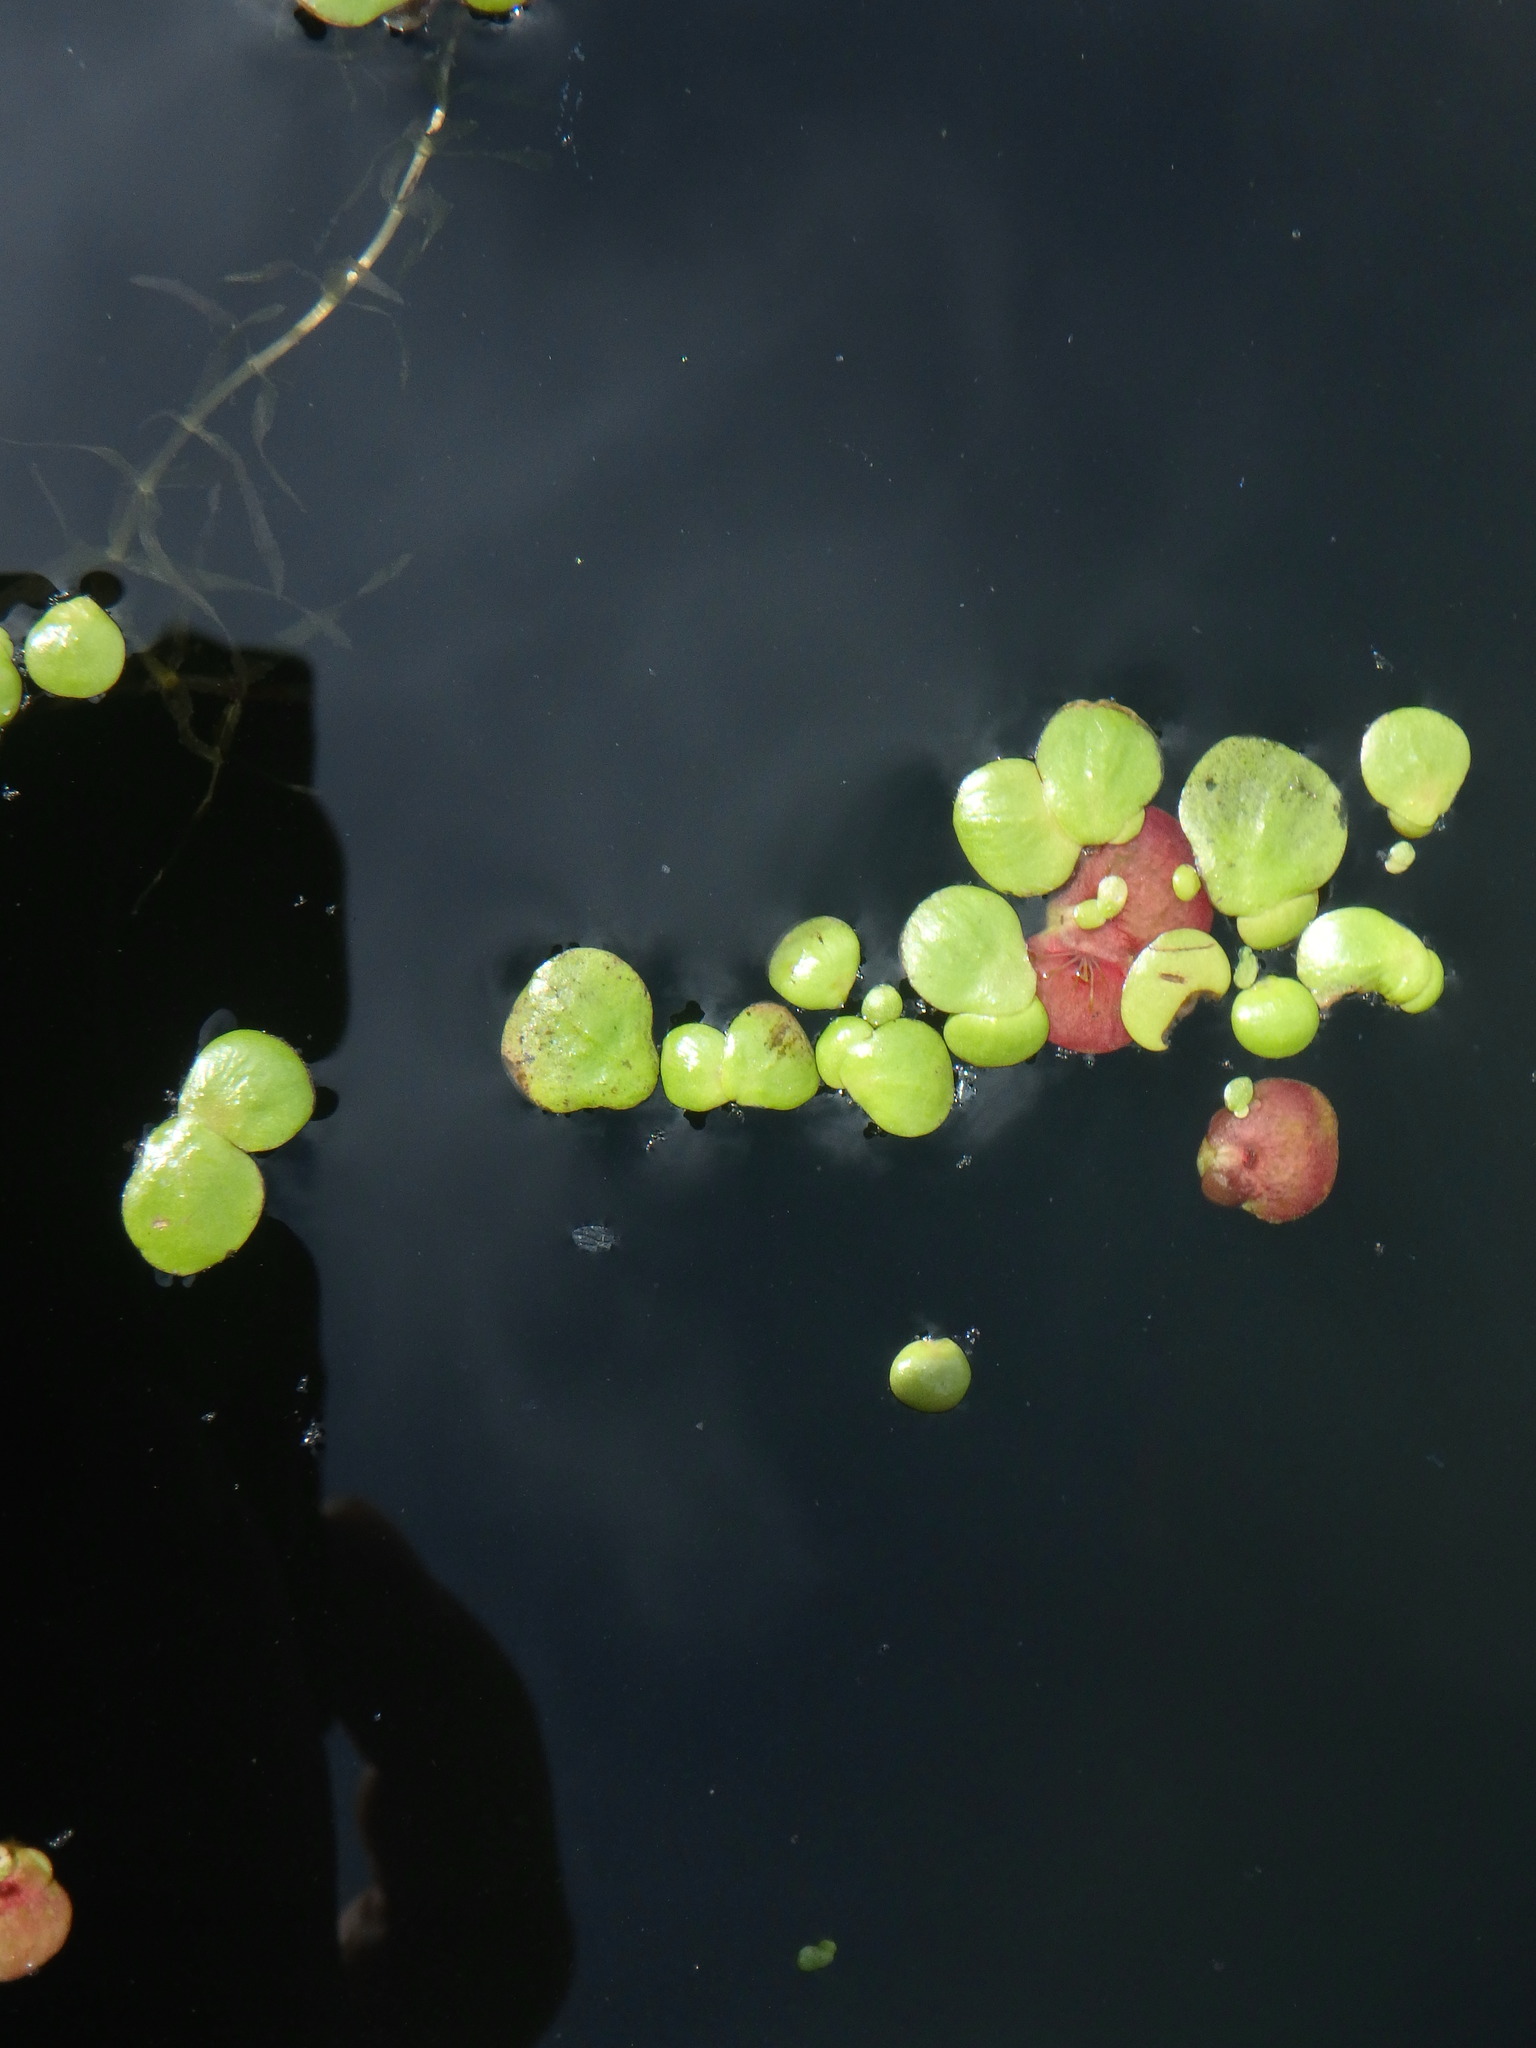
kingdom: Plantae
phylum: Tracheophyta
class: Liliopsida
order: Alismatales
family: Araceae
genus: Spirodela
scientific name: Spirodela polyrhiza
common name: Great duckweed
